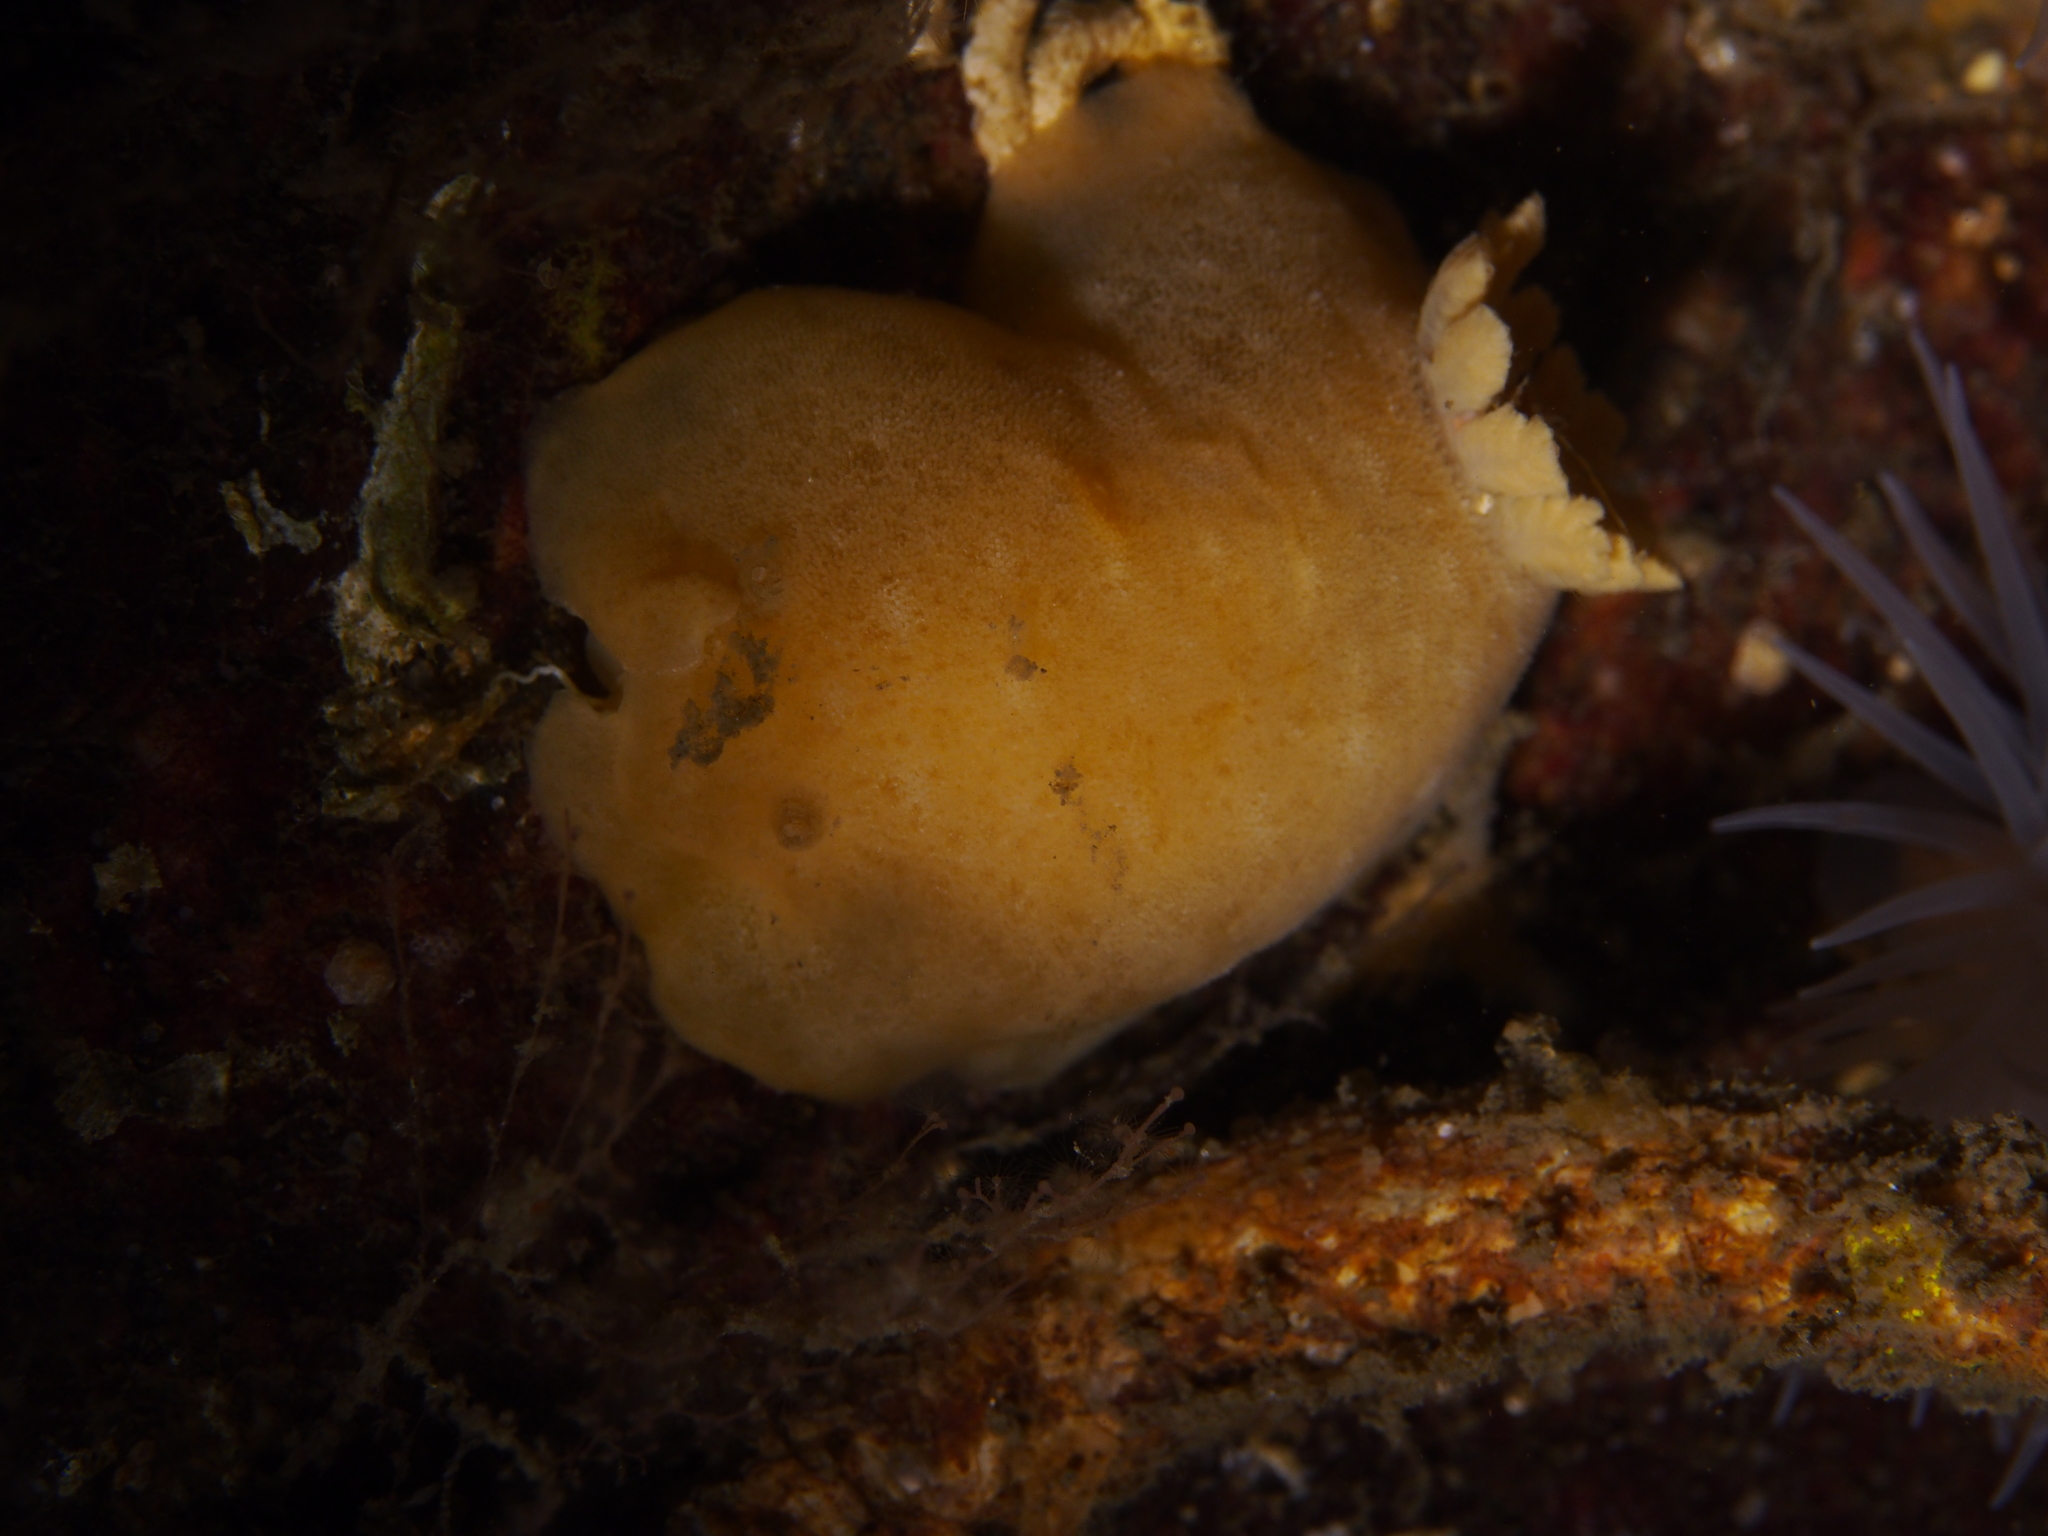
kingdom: Animalia
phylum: Mollusca
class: Gastropoda
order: Nudibranchia
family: Discodorididae
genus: Jorunna
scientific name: Jorunna tomentosa
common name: Grey sea slug
